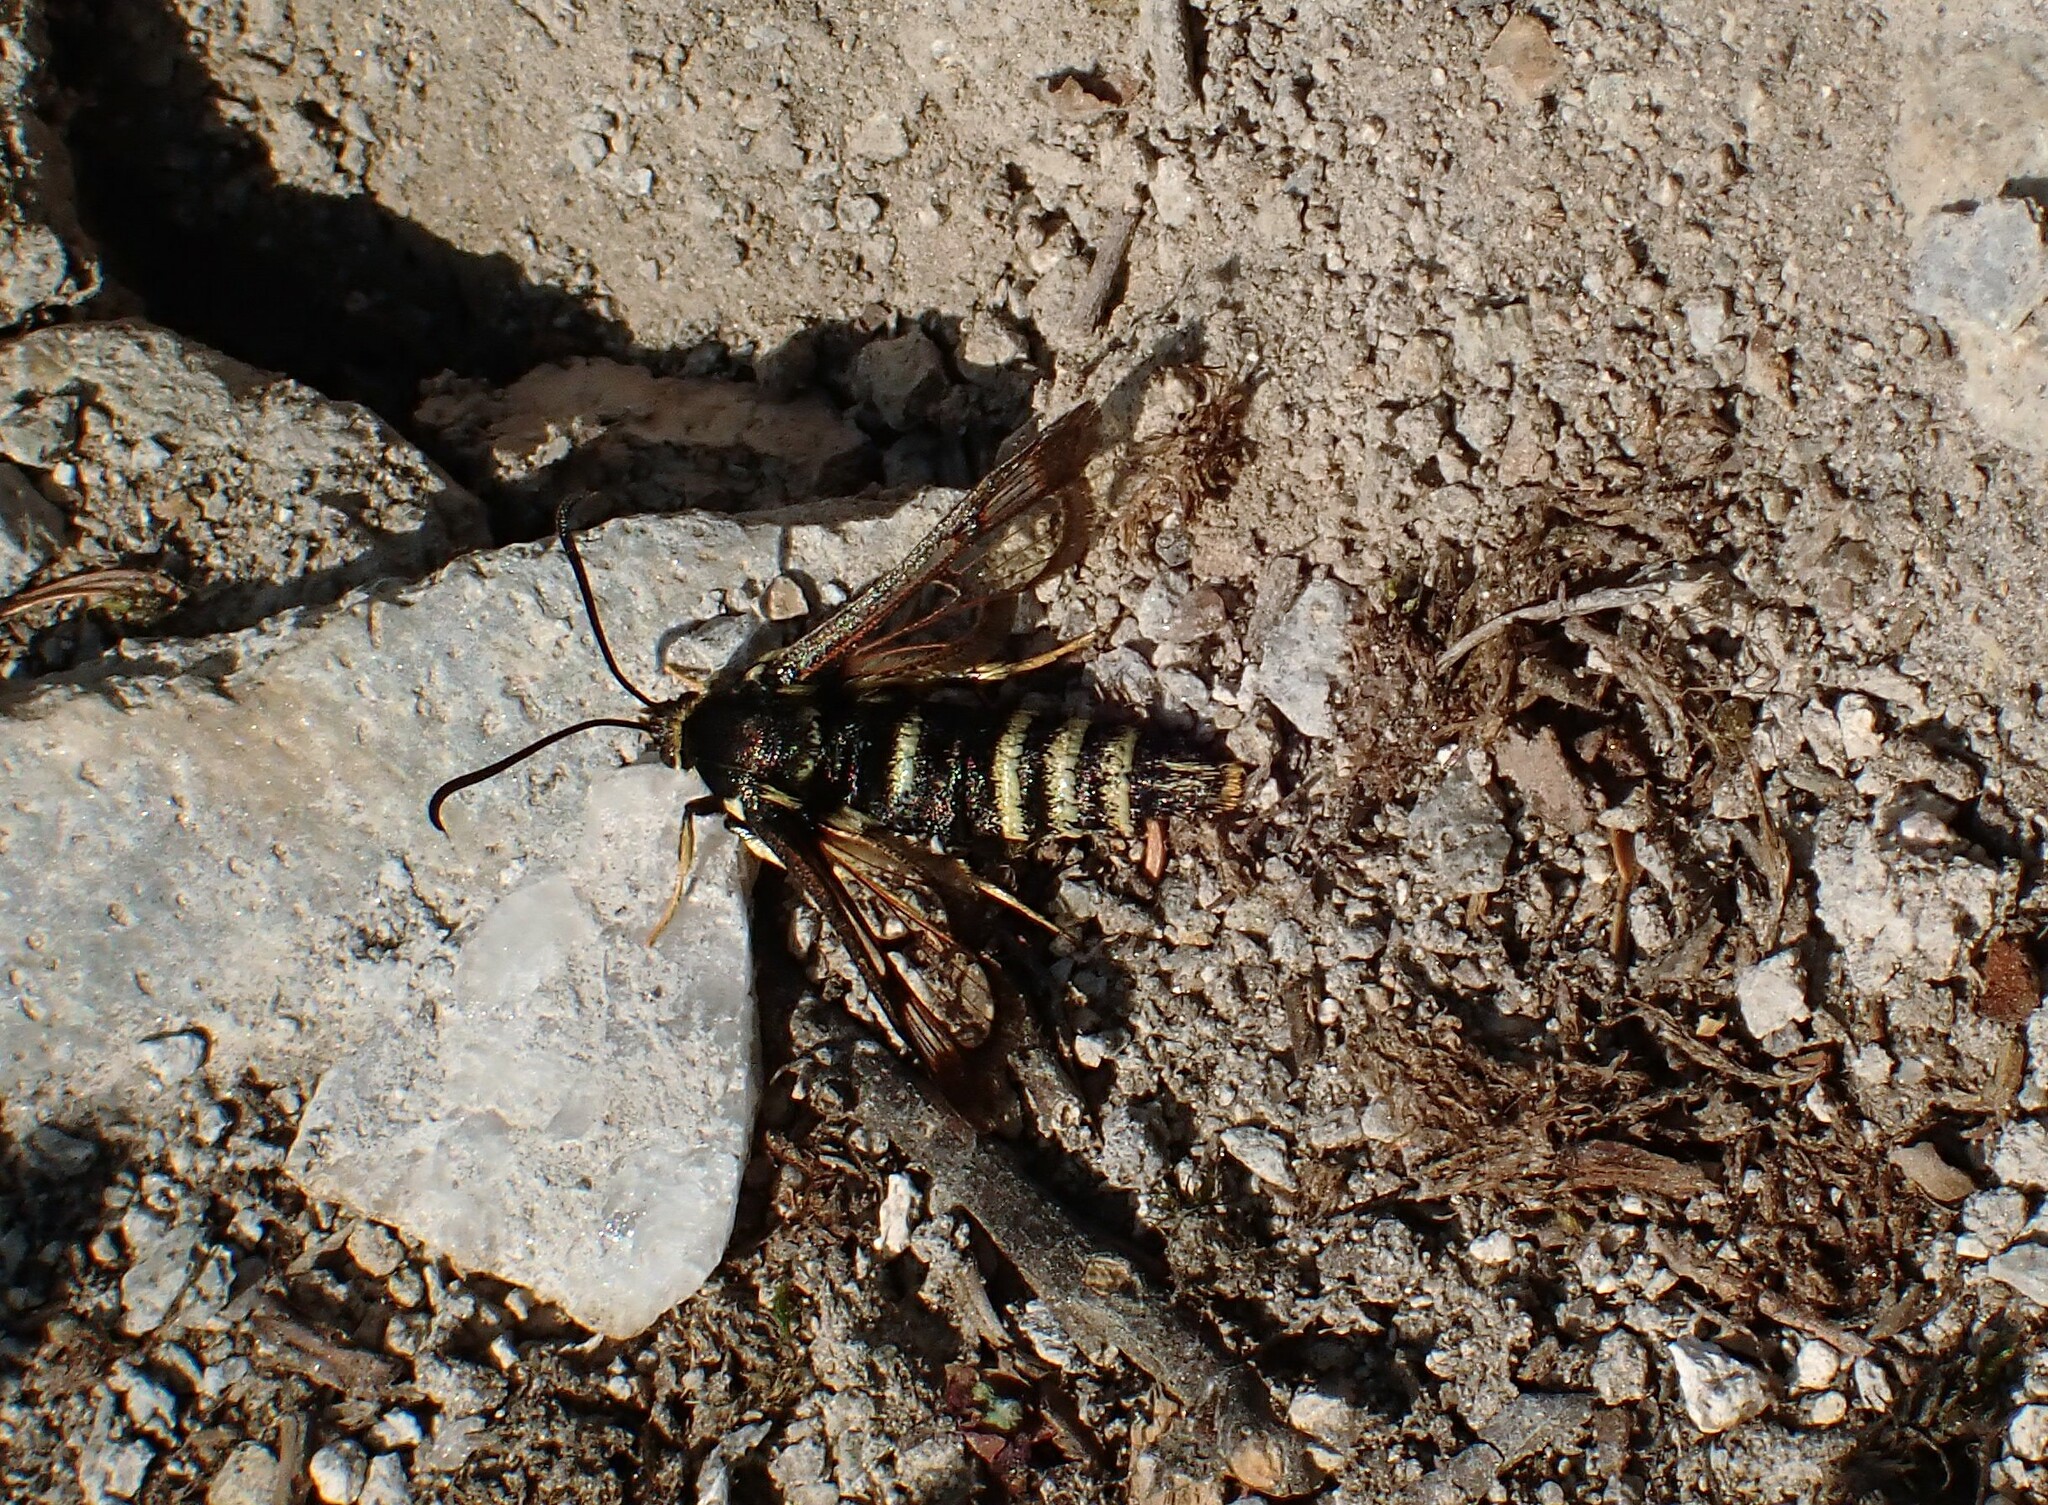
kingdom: Animalia
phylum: Arthropoda
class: Insecta
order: Lepidoptera
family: Sesiidae
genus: Albuna
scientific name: Albuna pyramidalis
